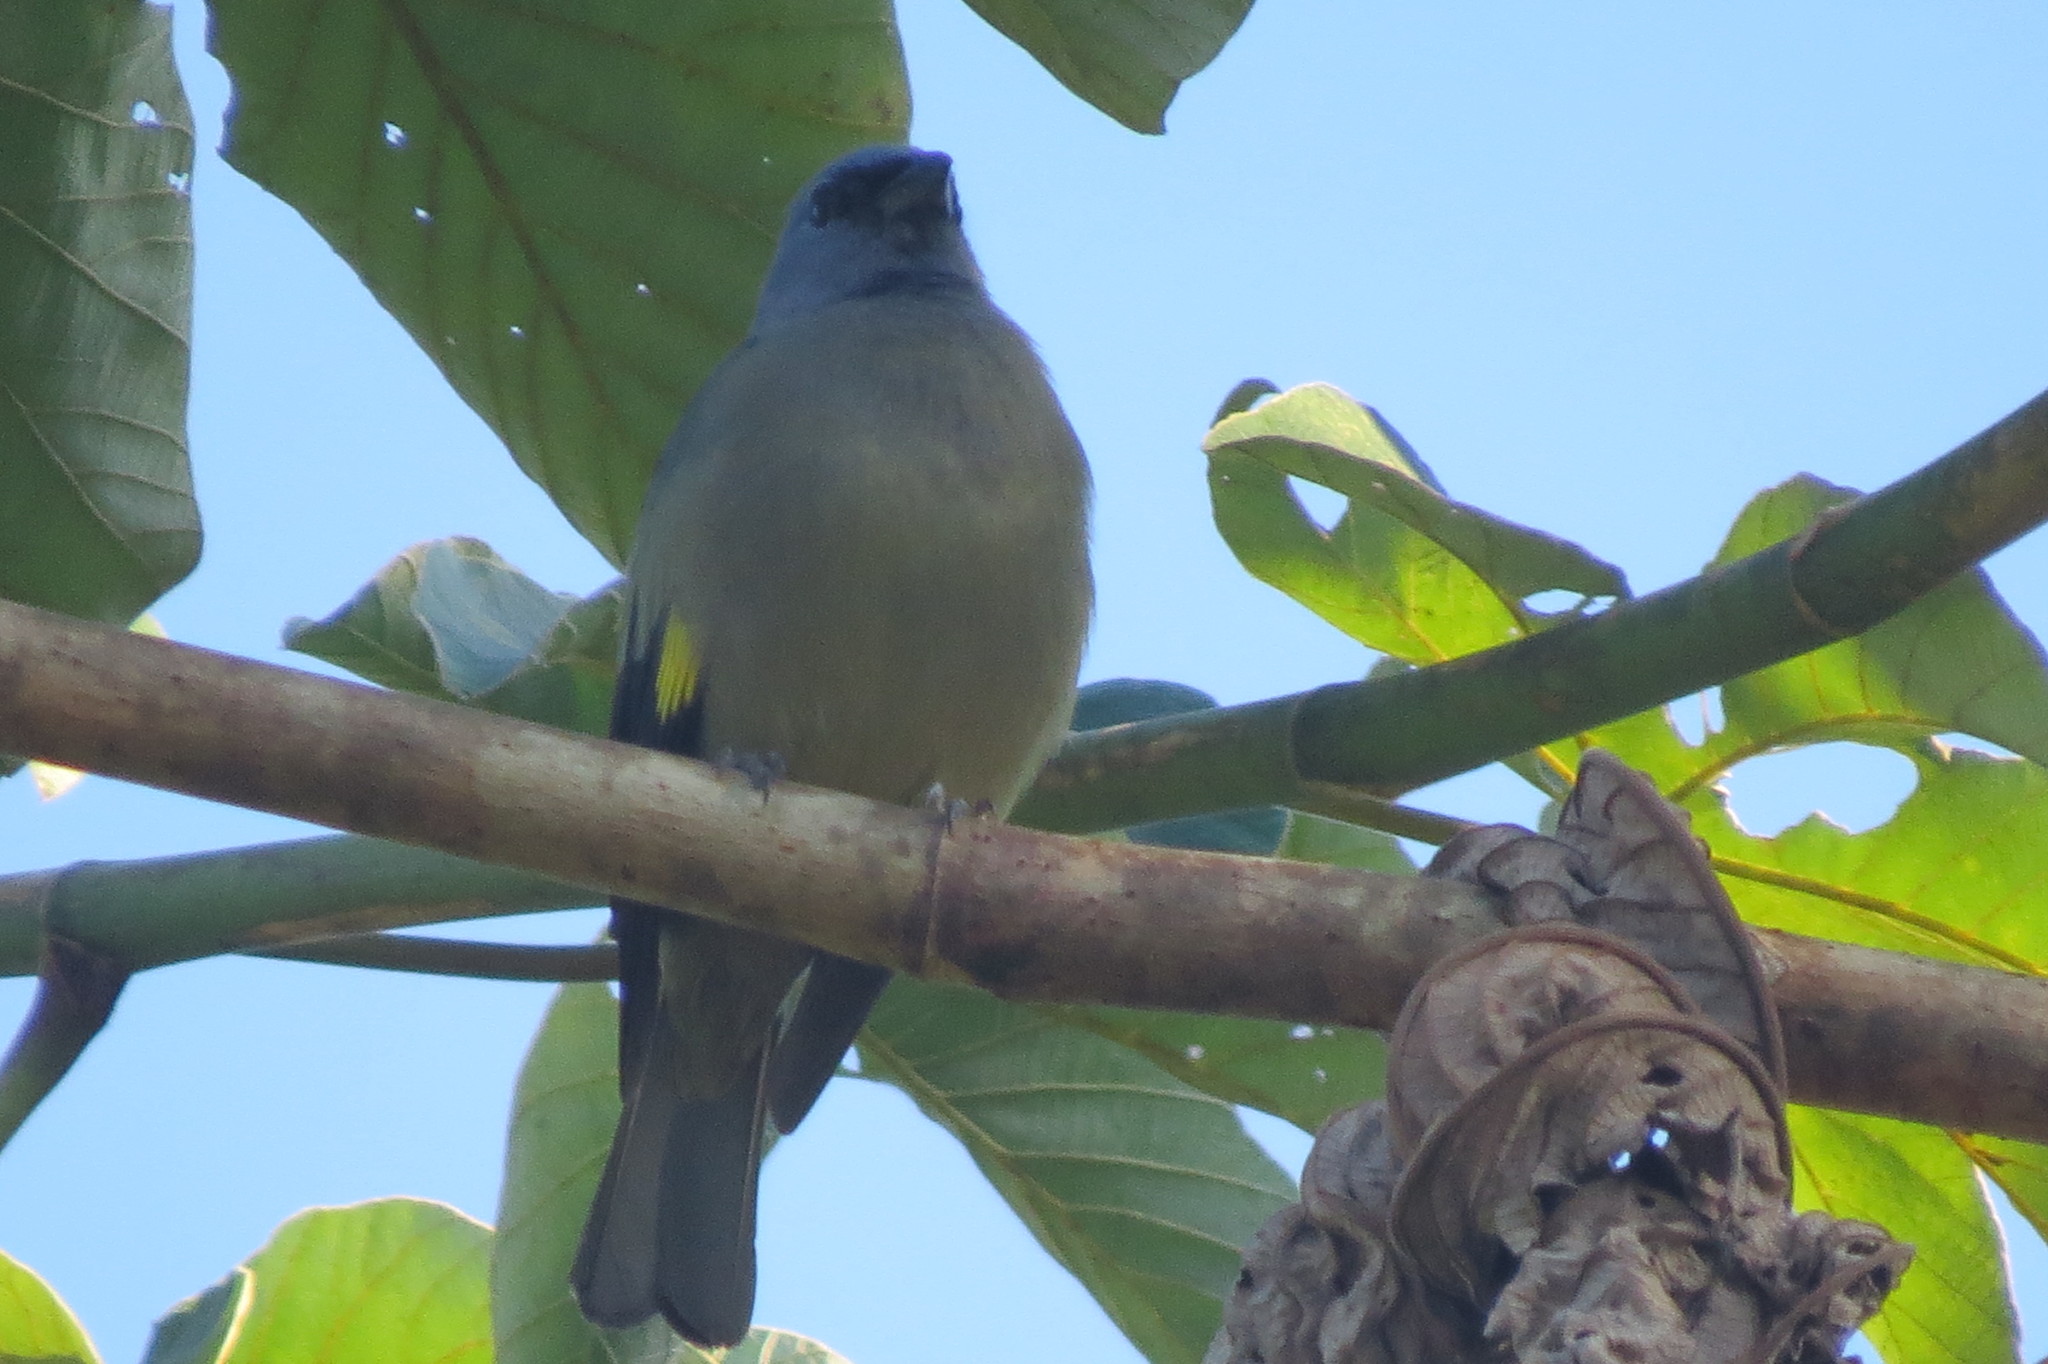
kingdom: Animalia
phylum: Chordata
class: Aves
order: Passeriformes
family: Thraupidae
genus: Thraupis
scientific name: Thraupis abbas
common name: Yellow-winged tanager
